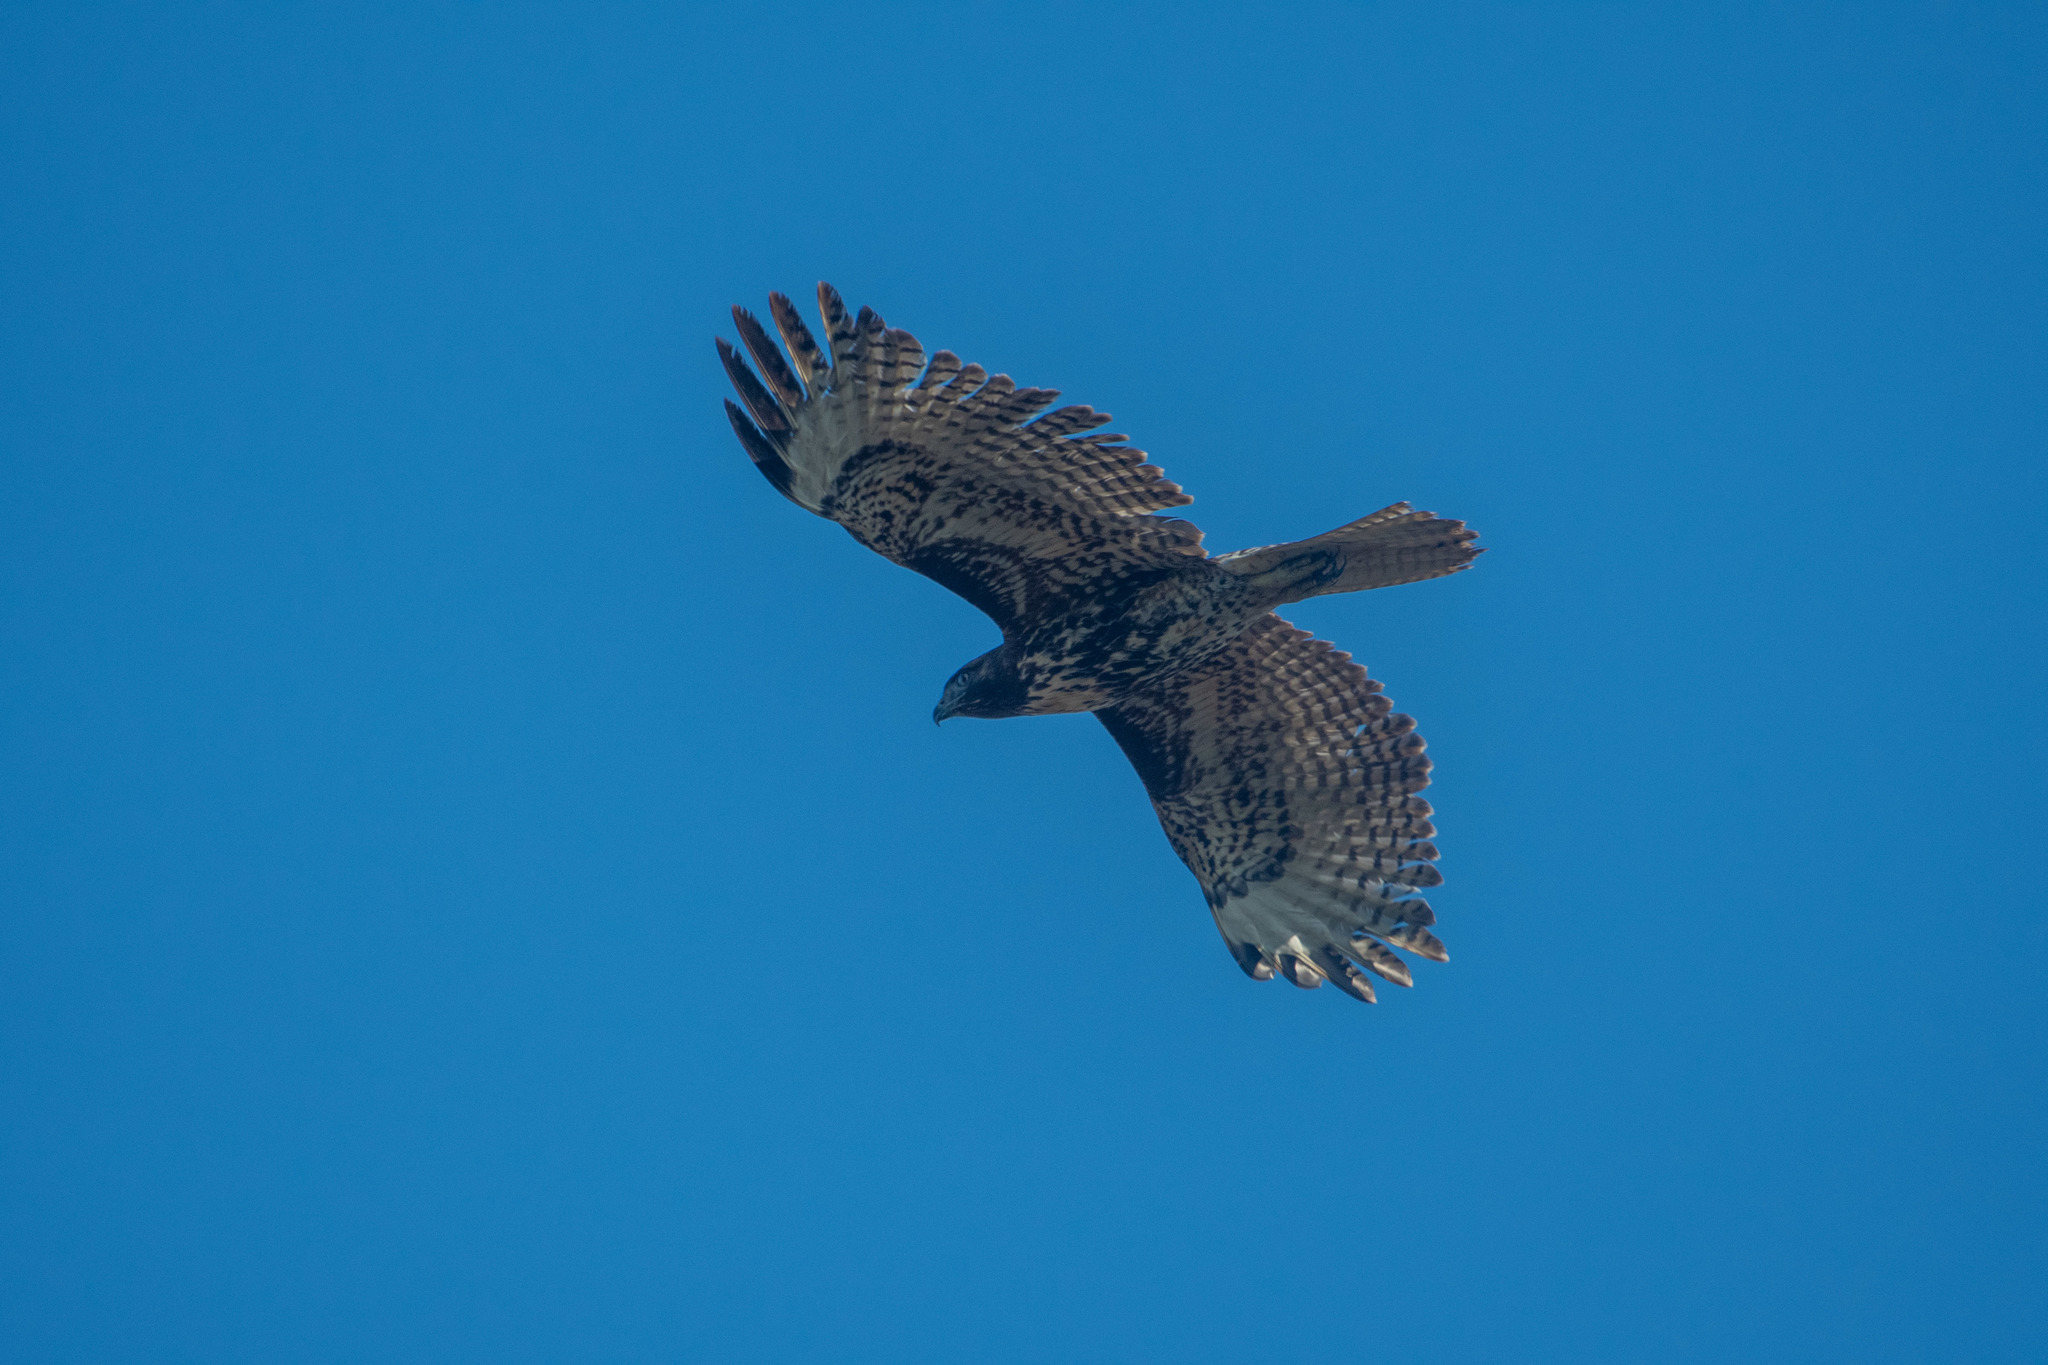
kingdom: Animalia
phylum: Chordata
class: Aves
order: Accipitriformes
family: Accipitridae
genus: Buteo
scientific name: Buteo jamaicensis
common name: Red-tailed hawk
